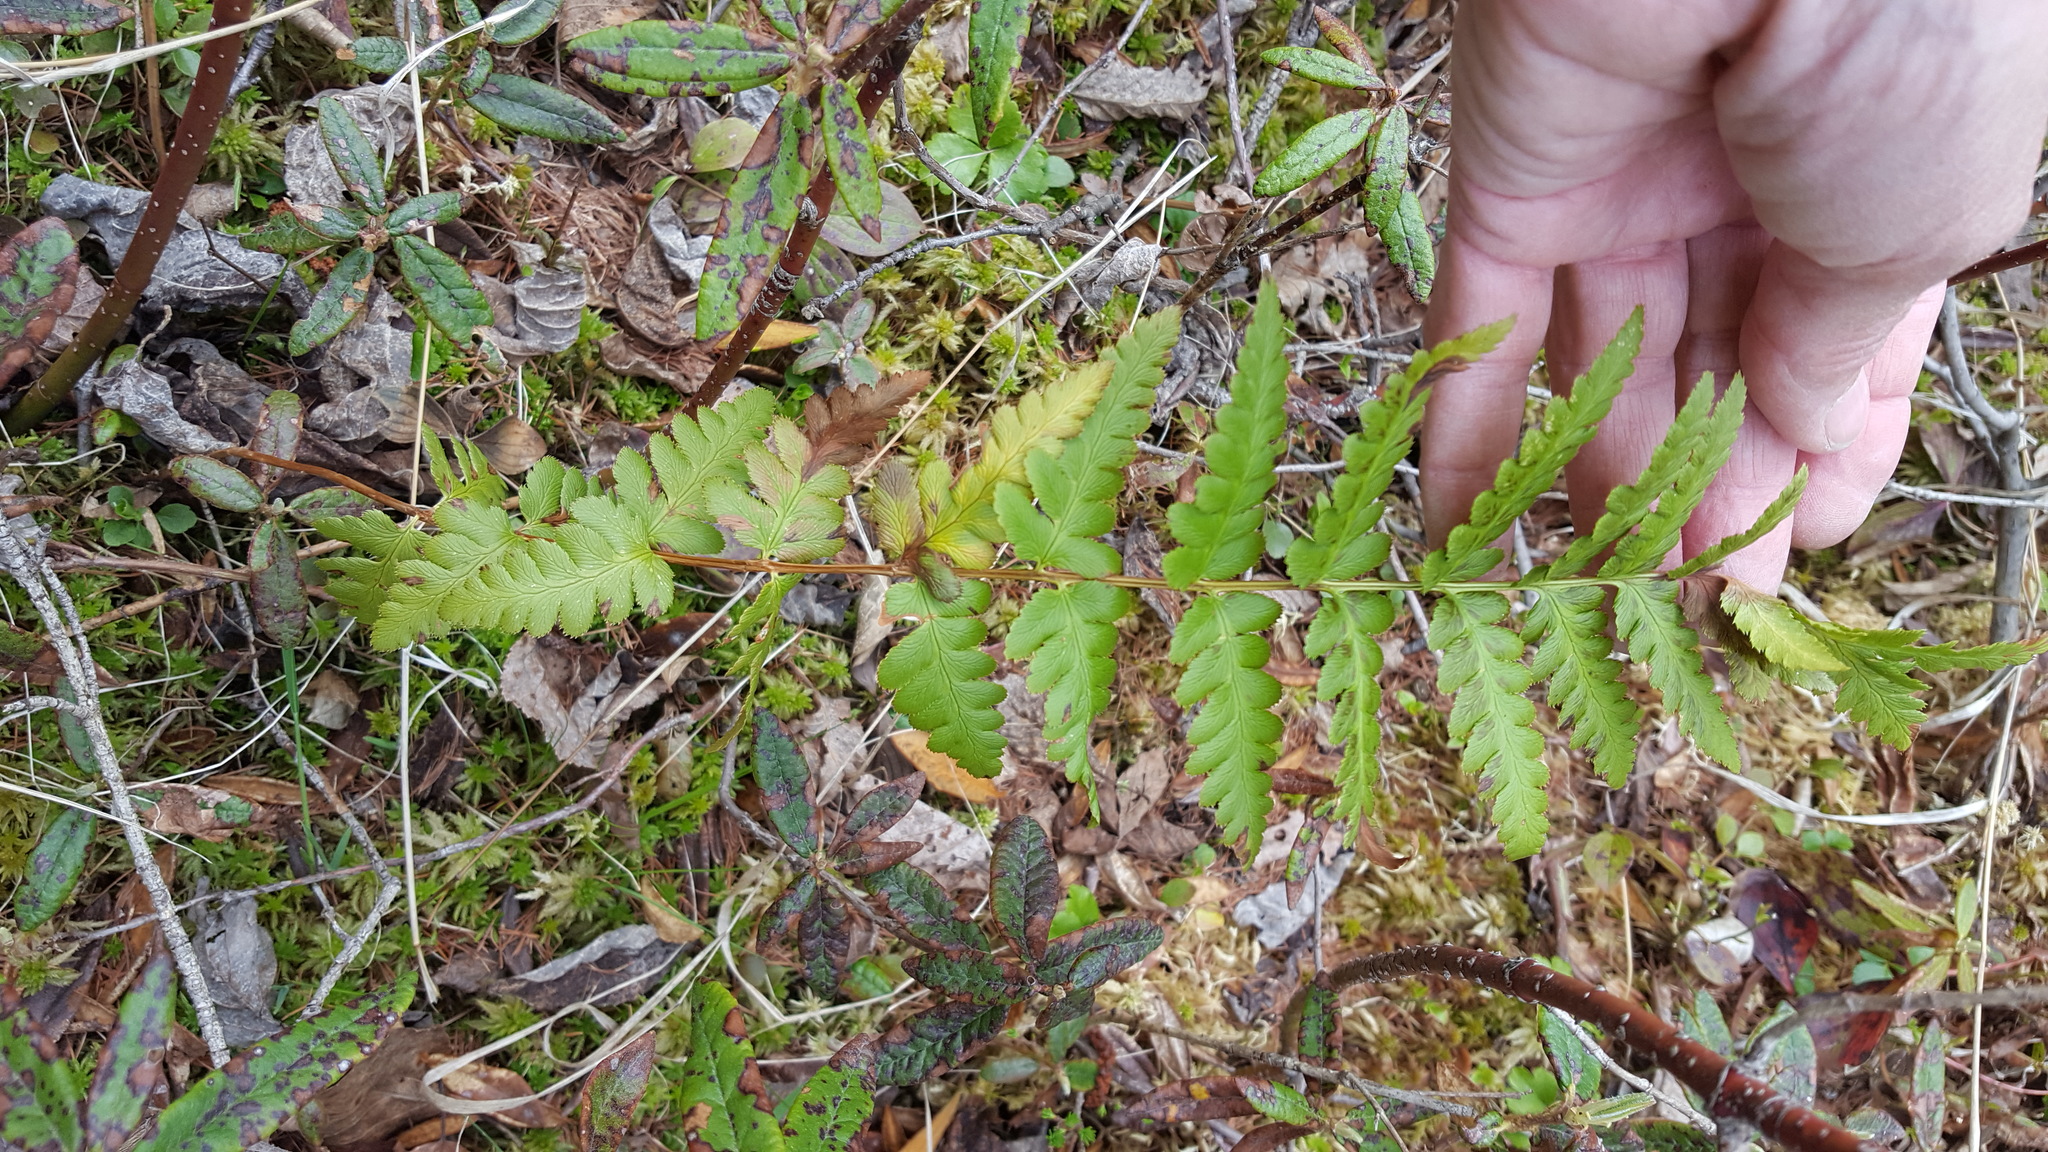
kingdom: Plantae
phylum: Tracheophyta
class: Polypodiopsida
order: Polypodiales
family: Dryopteridaceae
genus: Dryopteris
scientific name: Dryopteris cristata
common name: Crested wood fern
